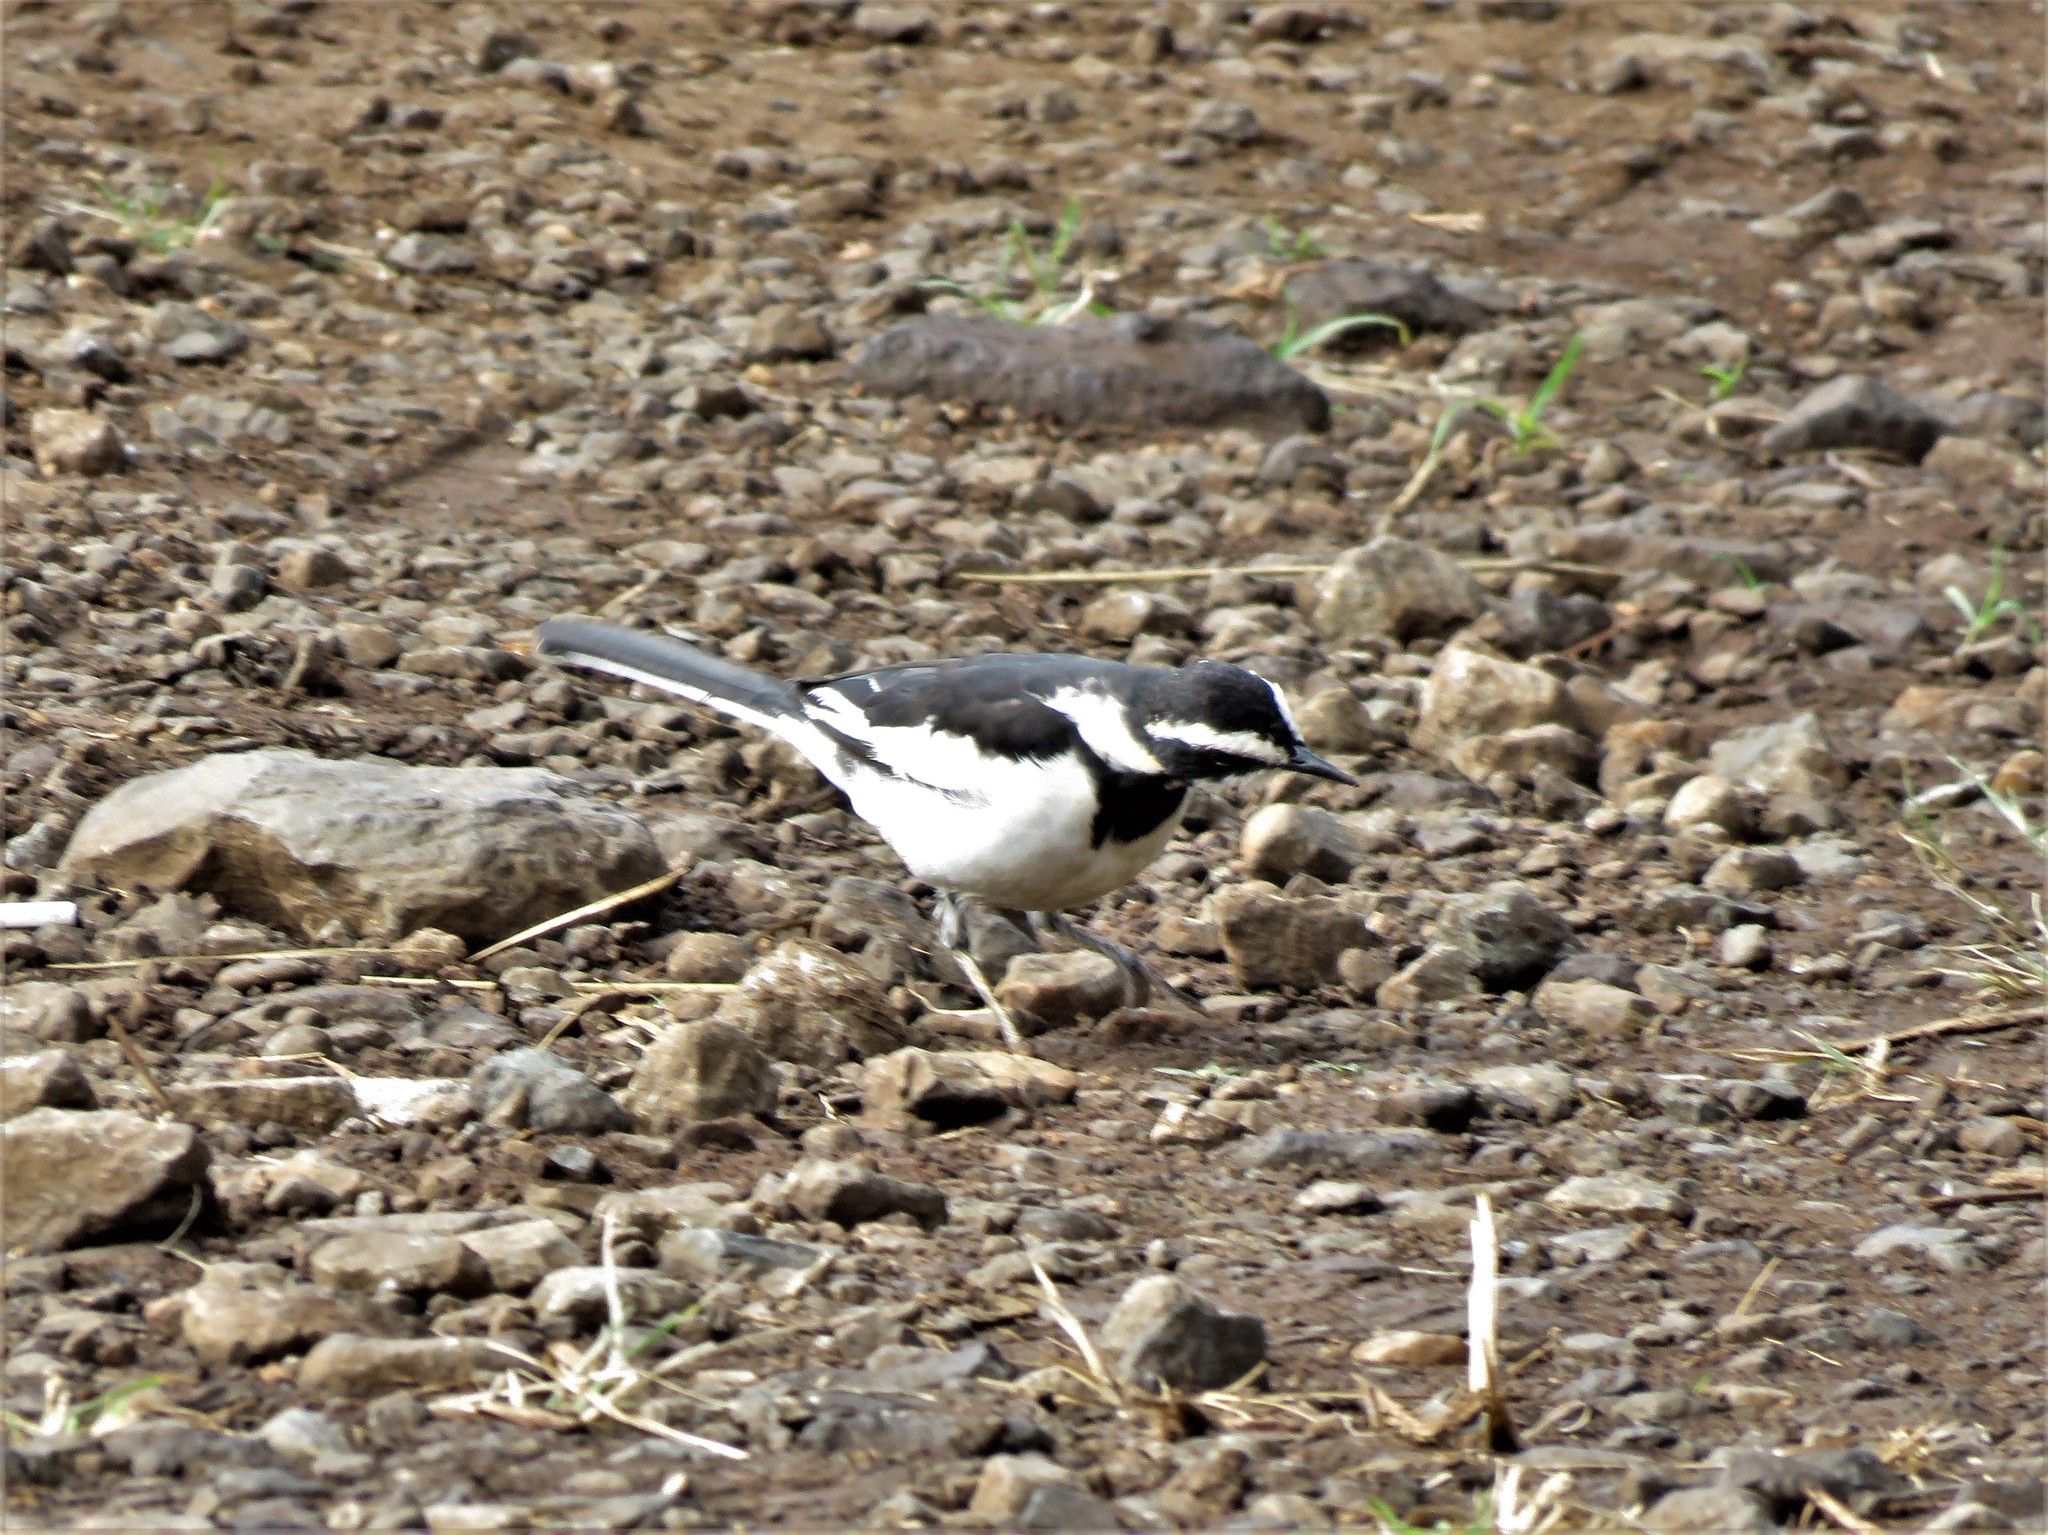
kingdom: Animalia
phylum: Chordata
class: Aves
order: Passeriformes
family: Motacillidae
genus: Motacilla
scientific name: Motacilla aguimp
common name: African pied wagtail
